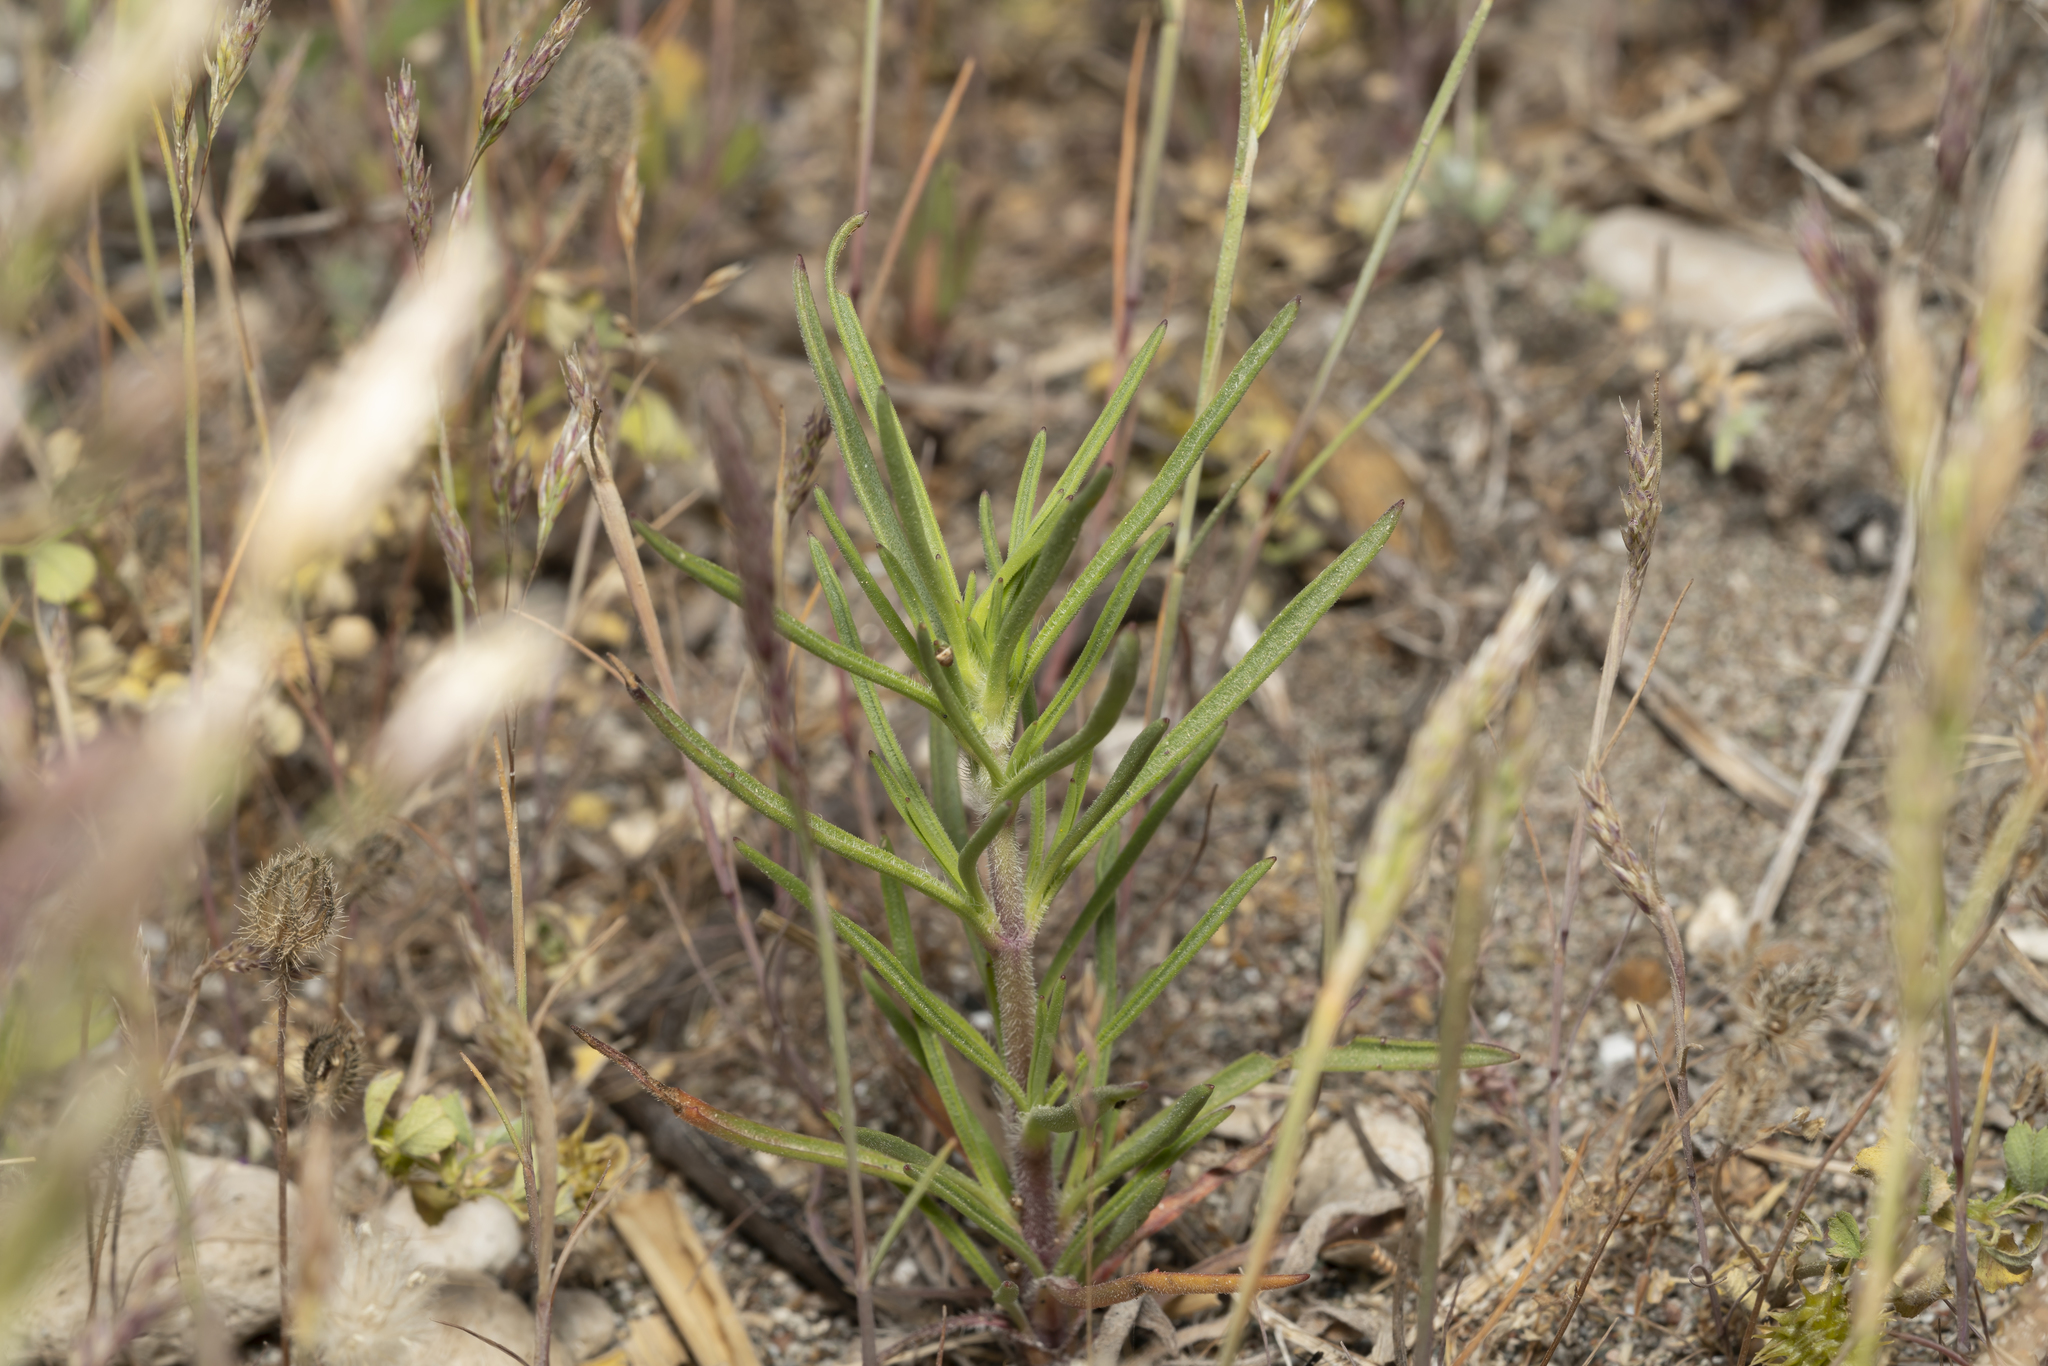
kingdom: Plantae
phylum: Tracheophyta
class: Magnoliopsida
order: Lamiales
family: Plantaginaceae
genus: Psyllium
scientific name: Psyllium
